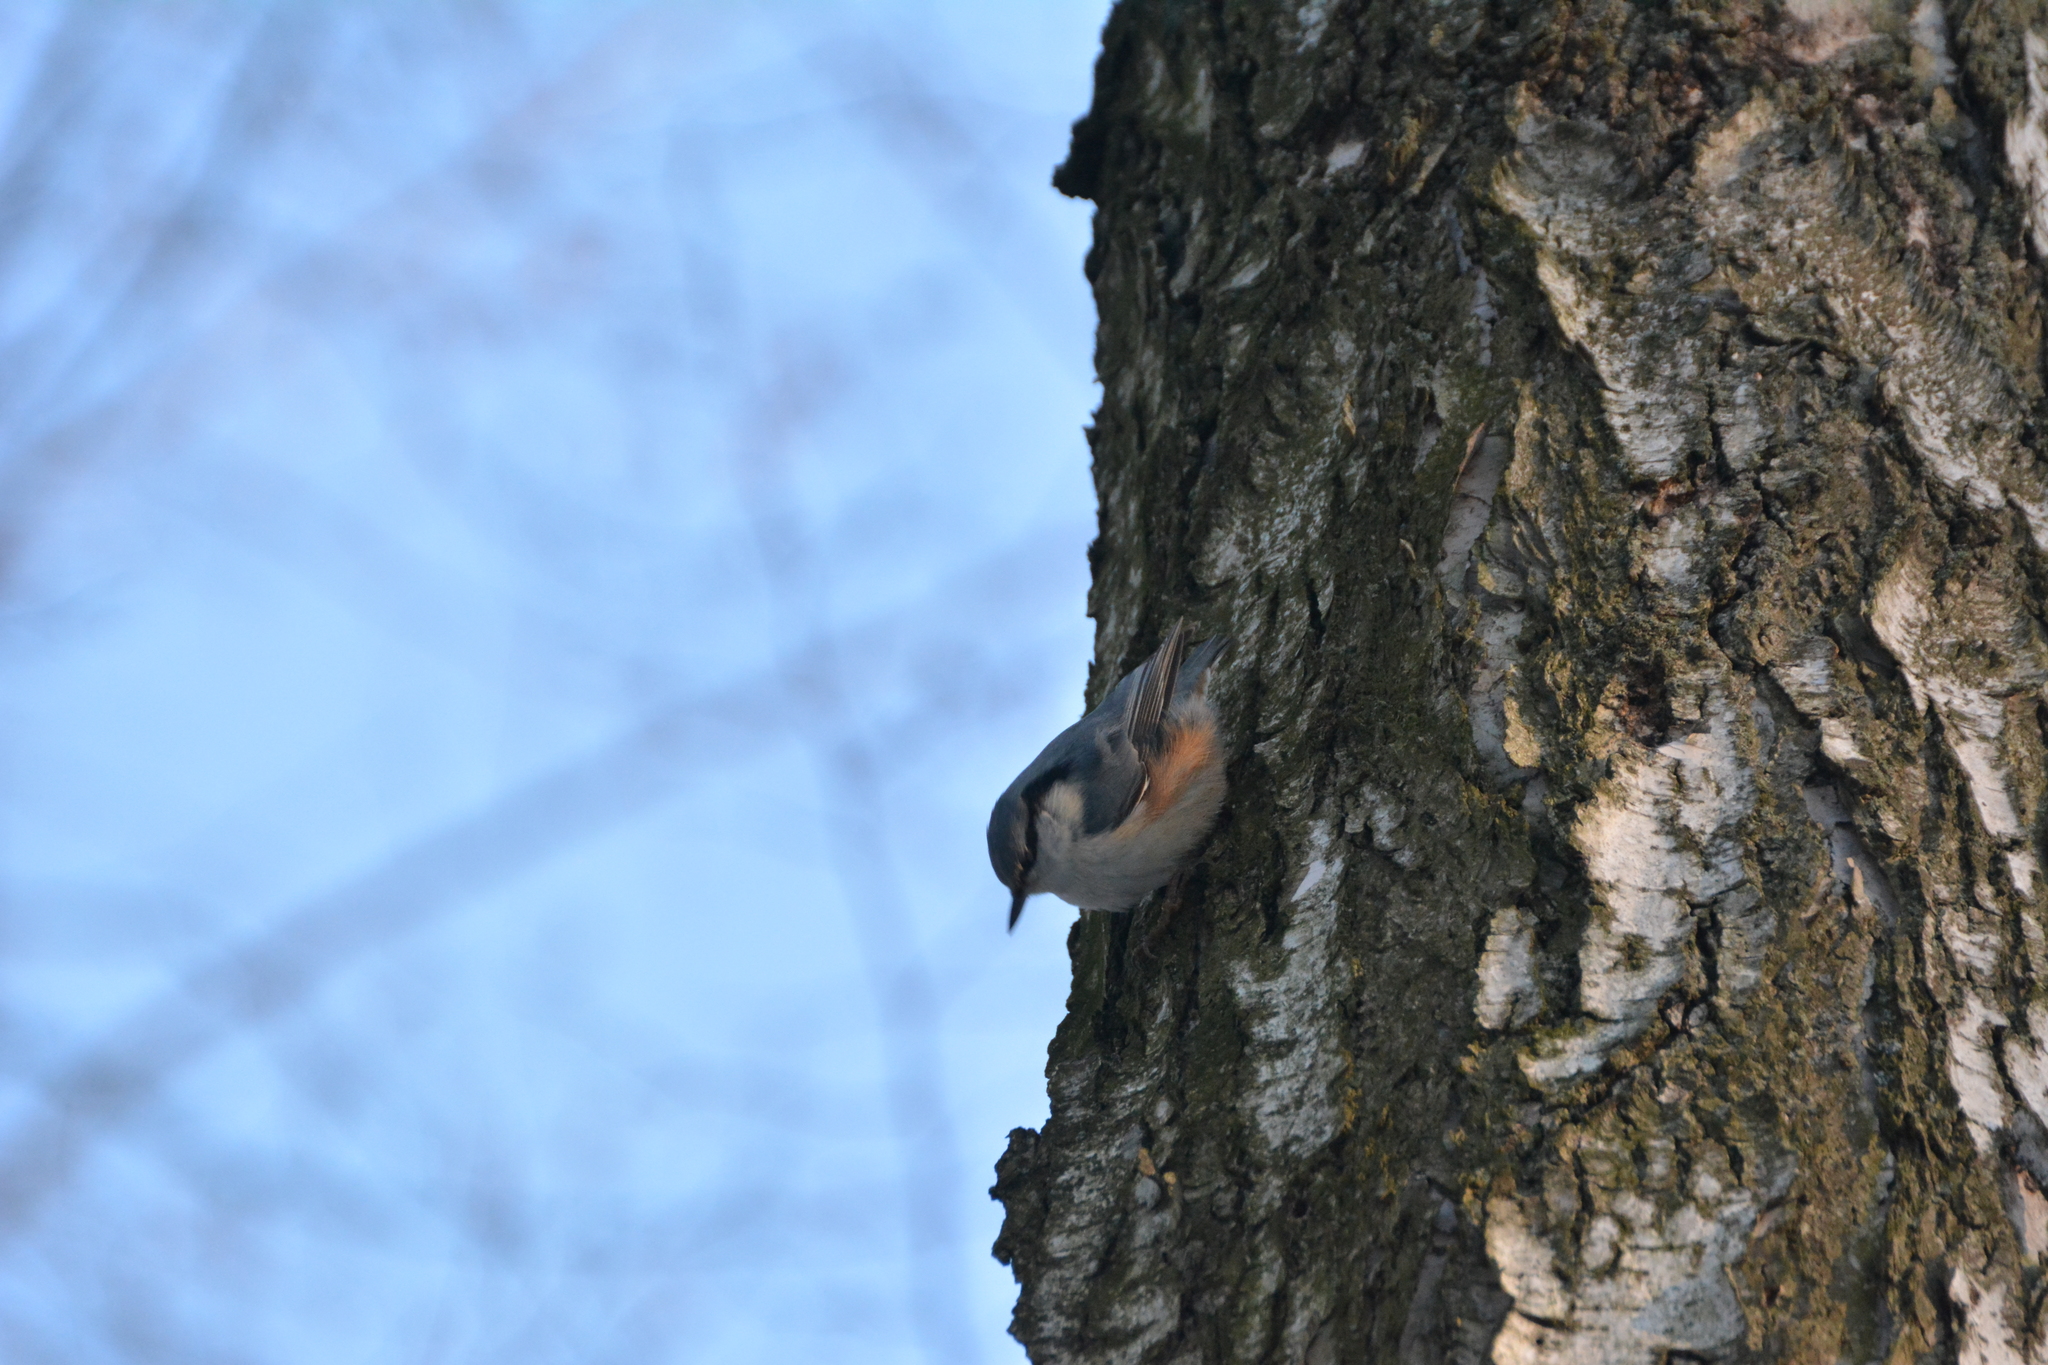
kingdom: Animalia
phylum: Chordata
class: Aves
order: Passeriformes
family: Sittidae
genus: Sitta
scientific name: Sitta europaea
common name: Eurasian nuthatch
